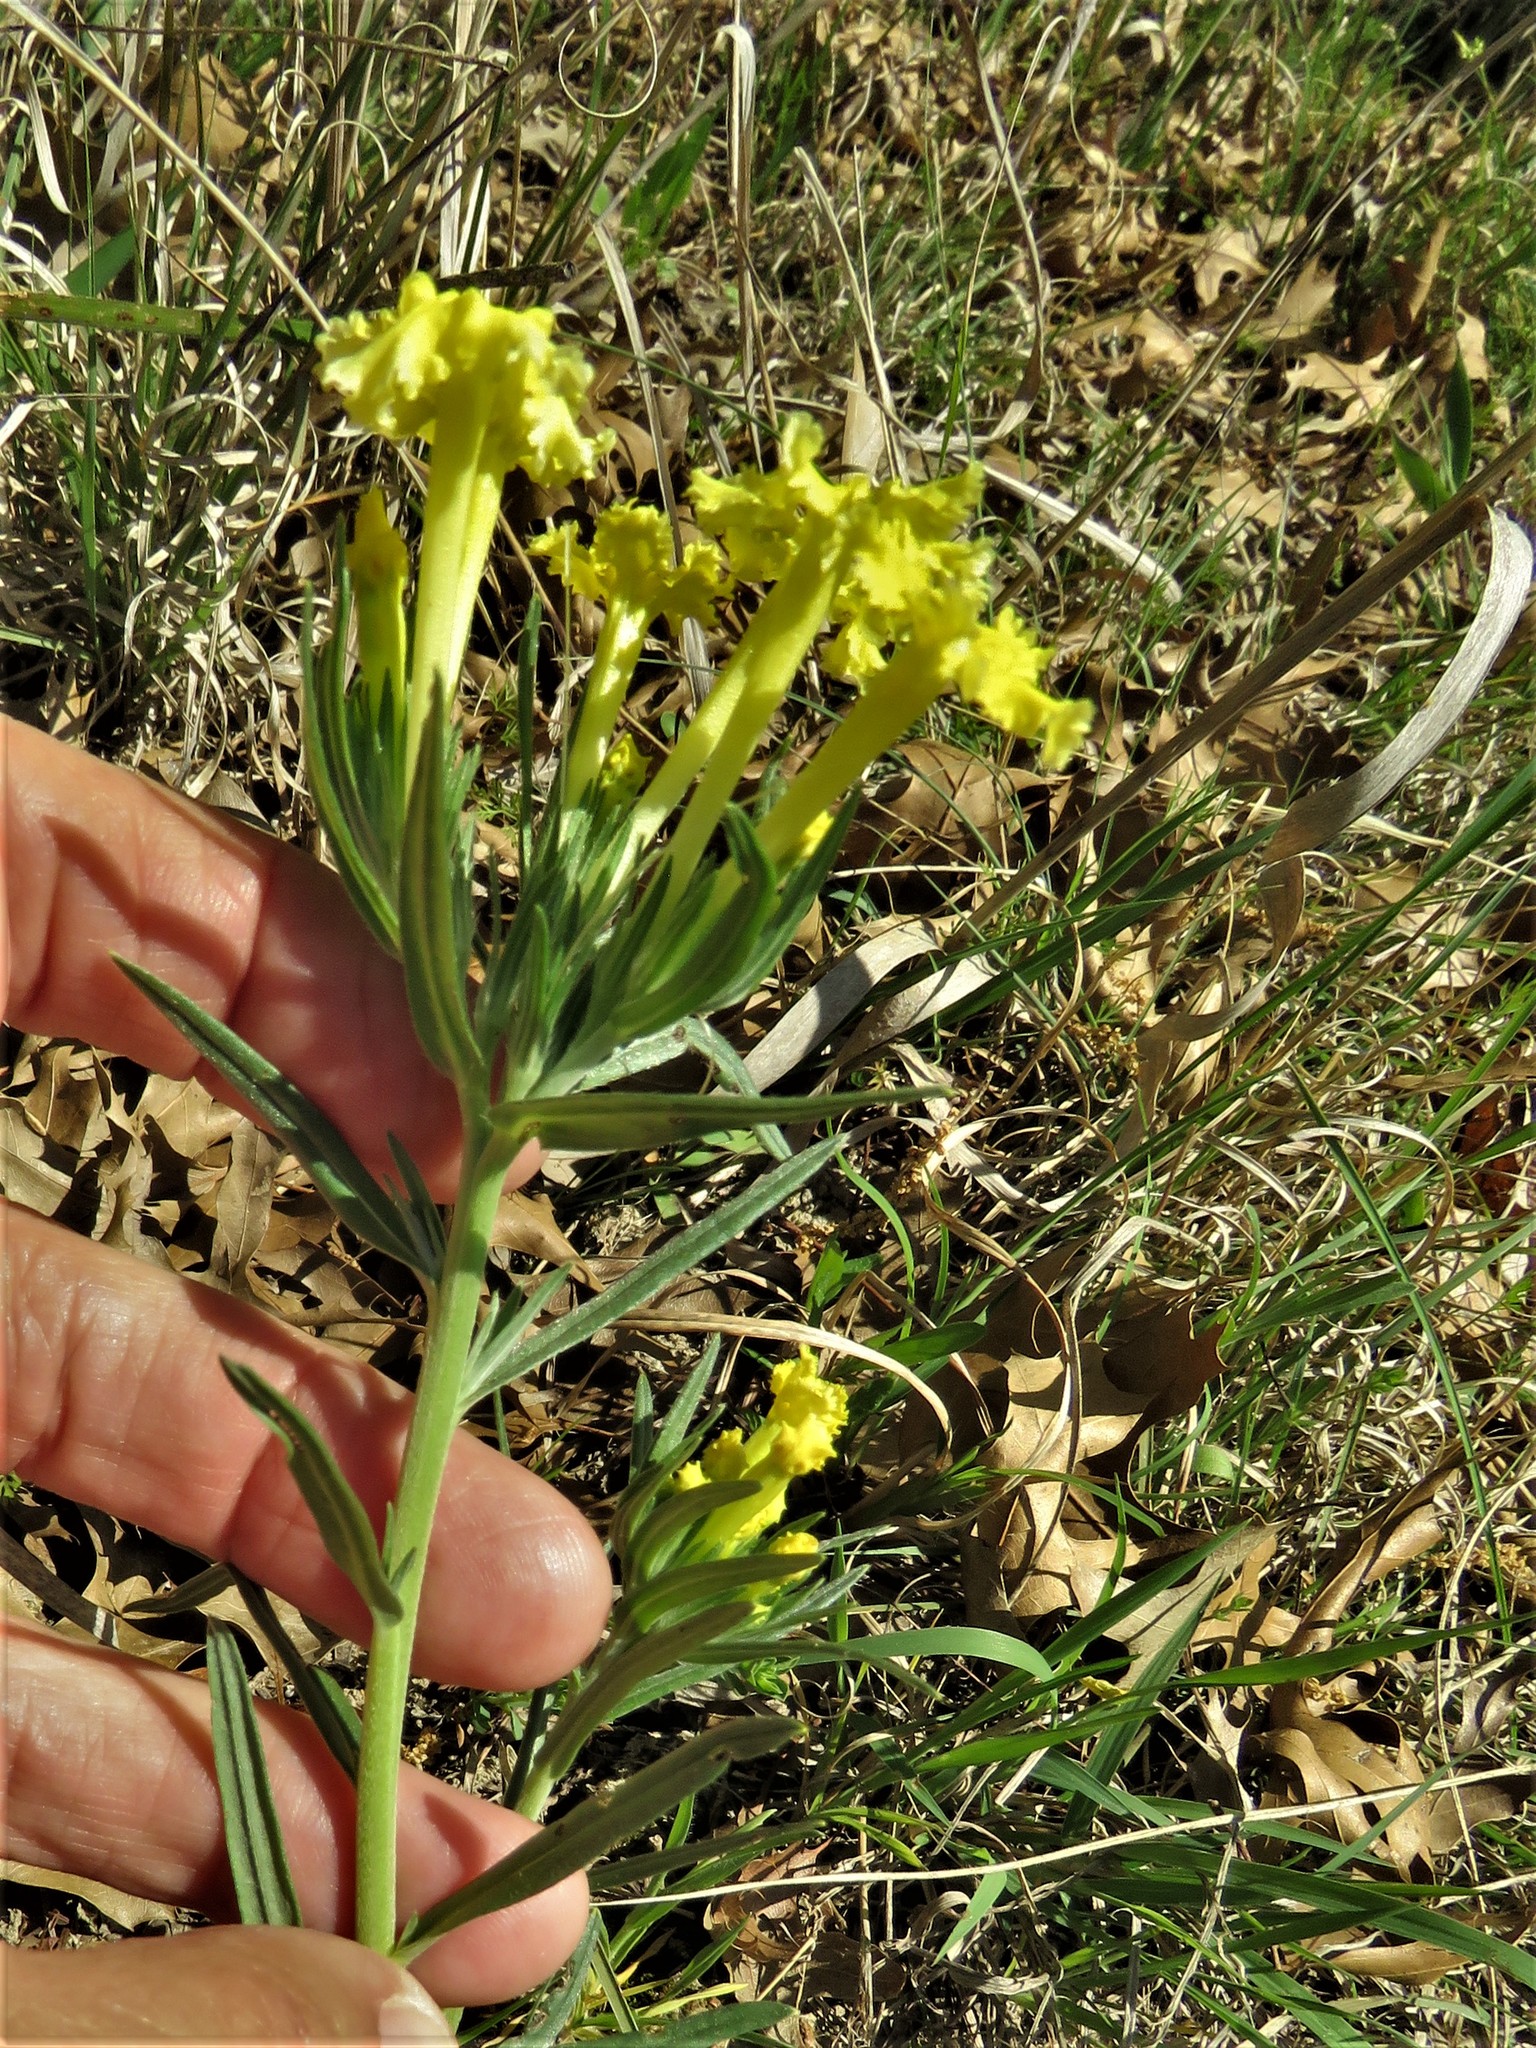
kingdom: Plantae
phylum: Tracheophyta
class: Magnoliopsida
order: Boraginales
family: Boraginaceae
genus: Lithospermum
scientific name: Lithospermum incisum
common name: Fringed gromwell
